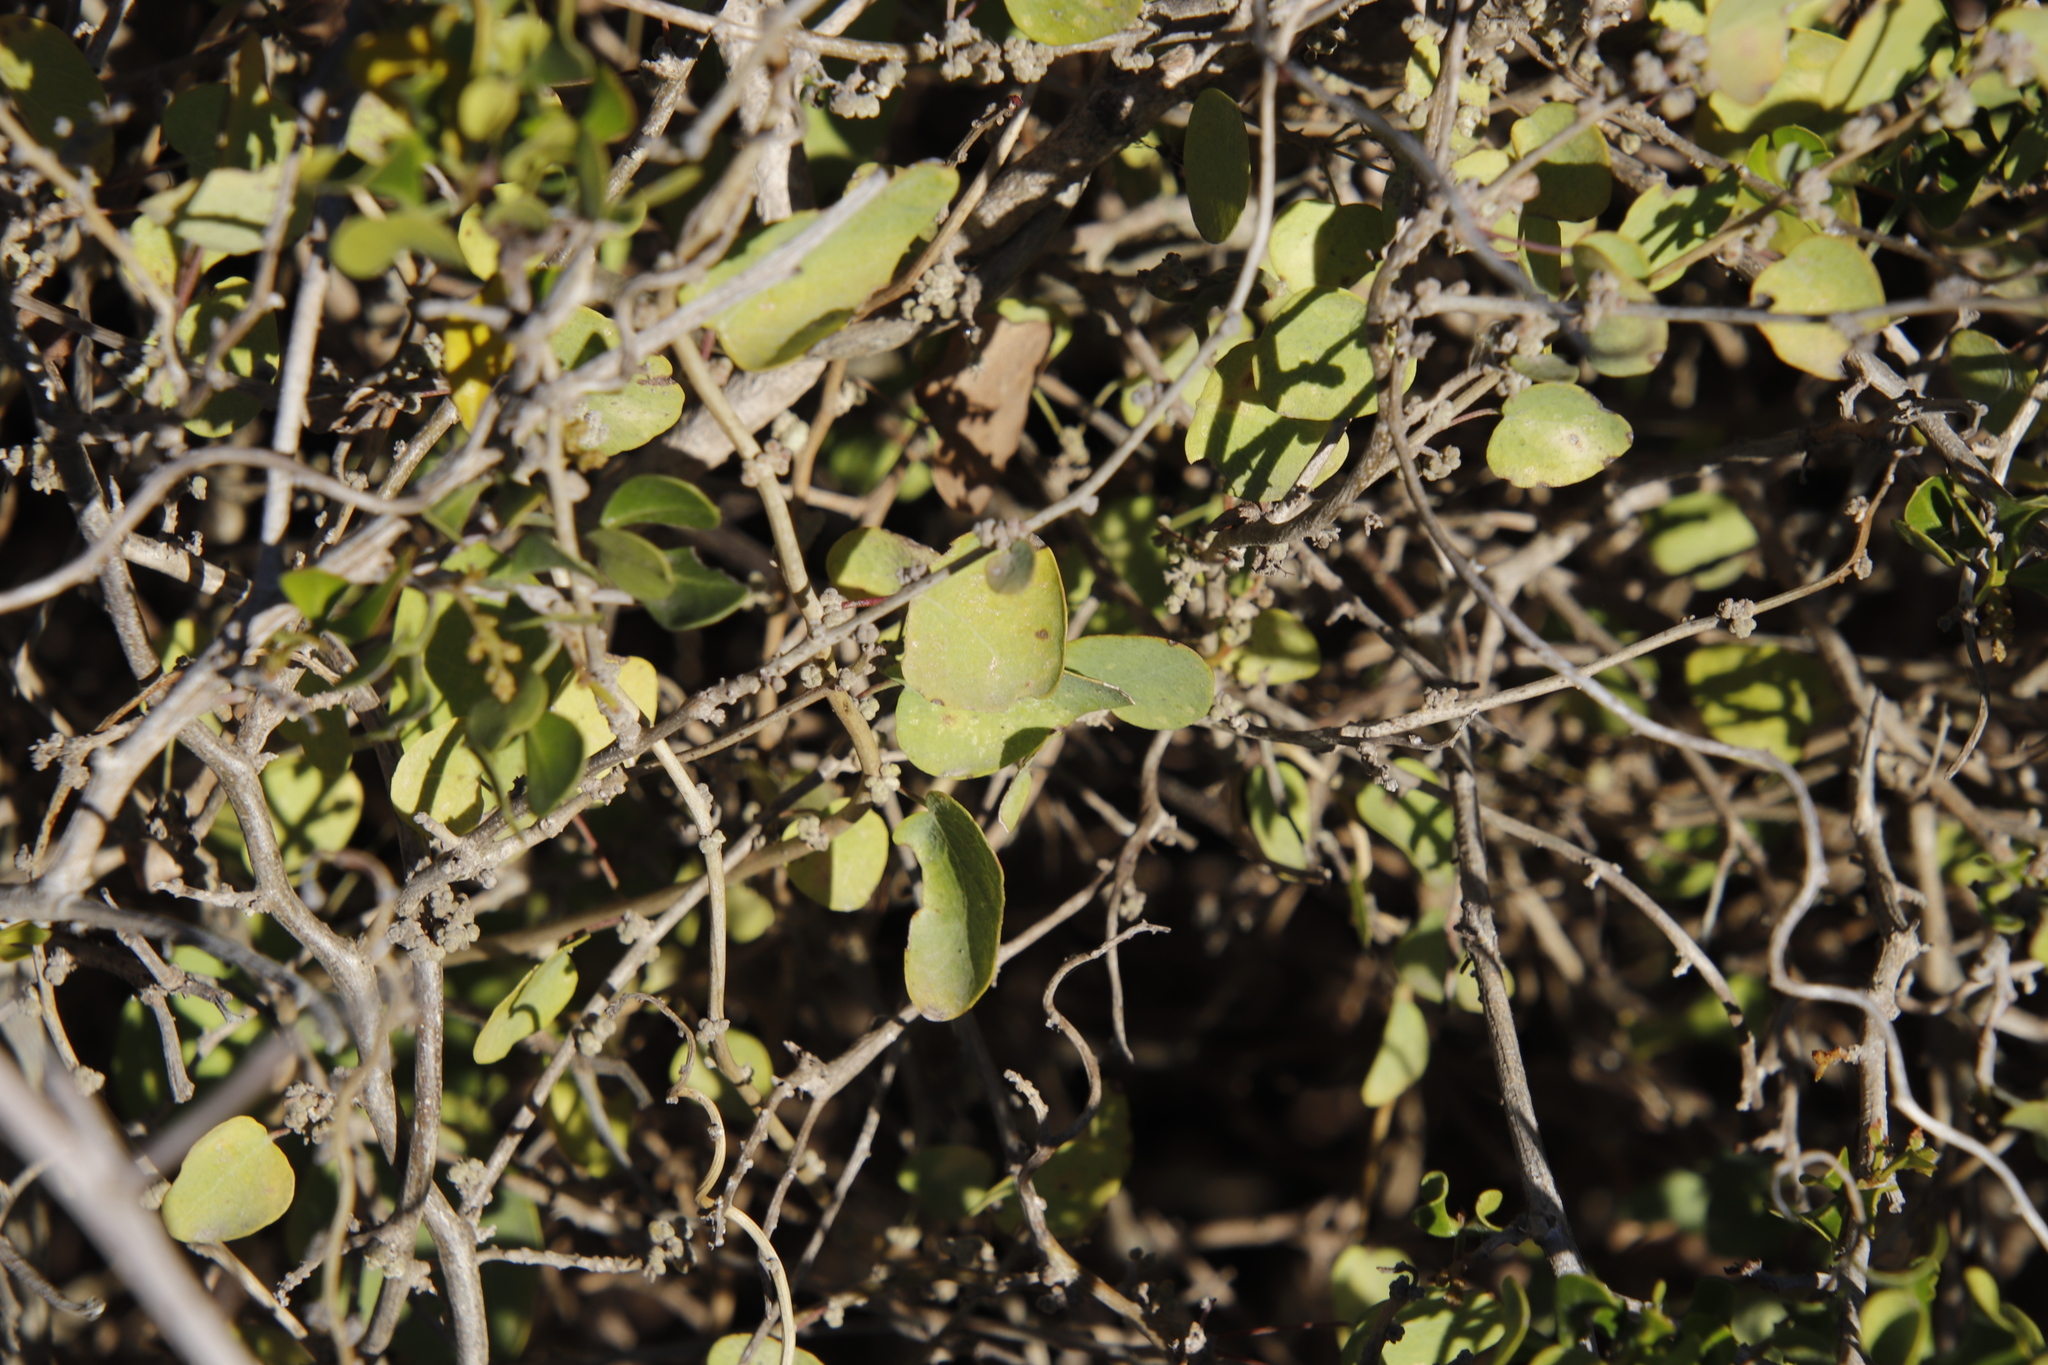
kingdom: Plantae
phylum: Tracheophyta
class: Magnoliopsida
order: Ranunculales
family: Menispermaceae
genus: Cissampelos
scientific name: Cissampelos capensis
